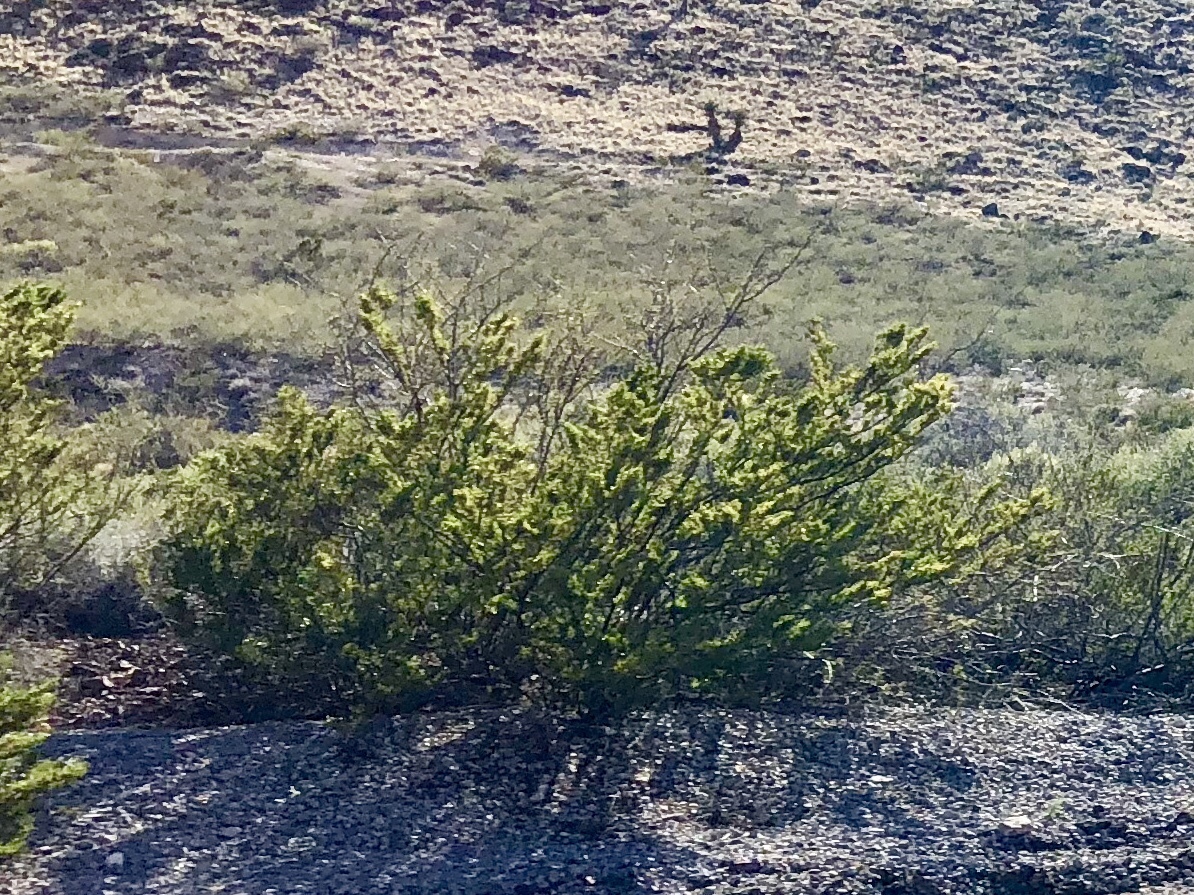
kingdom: Plantae
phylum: Tracheophyta
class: Magnoliopsida
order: Zygophyllales
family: Zygophyllaceae
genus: Larrea
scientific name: Larrea tridentata
